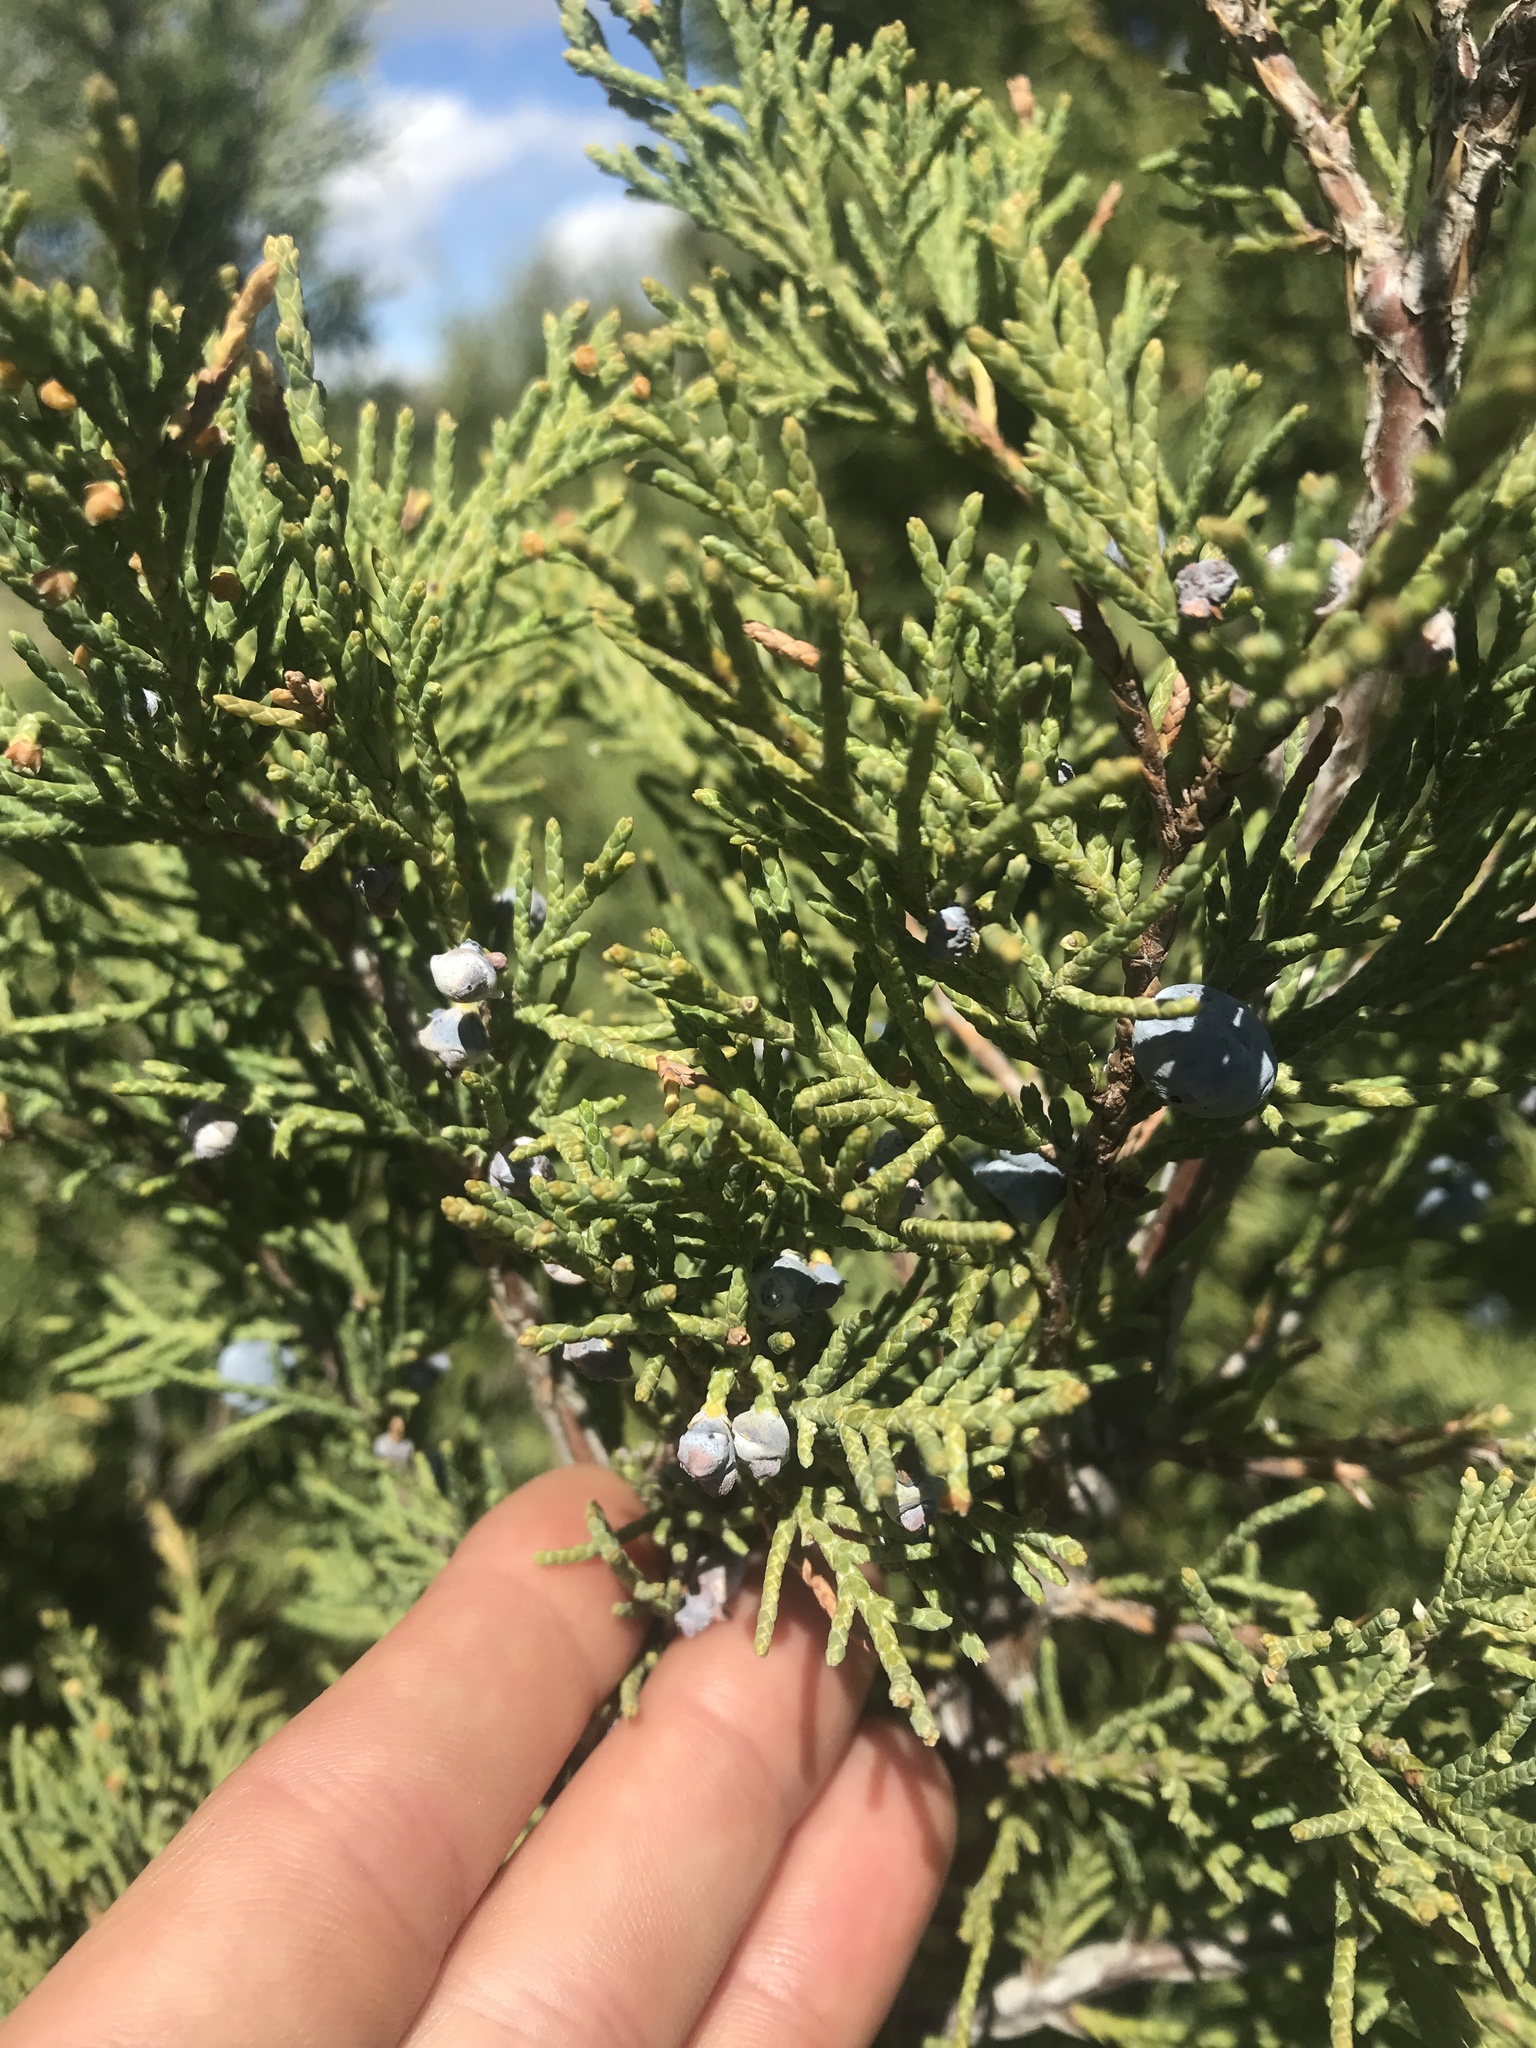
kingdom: Plantae
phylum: Tracheophyta
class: Pinopsida
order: Pinales
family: Cupressaceae
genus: Juniperus
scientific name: Juniperus scopulorum
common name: Rocky mountain juniper
